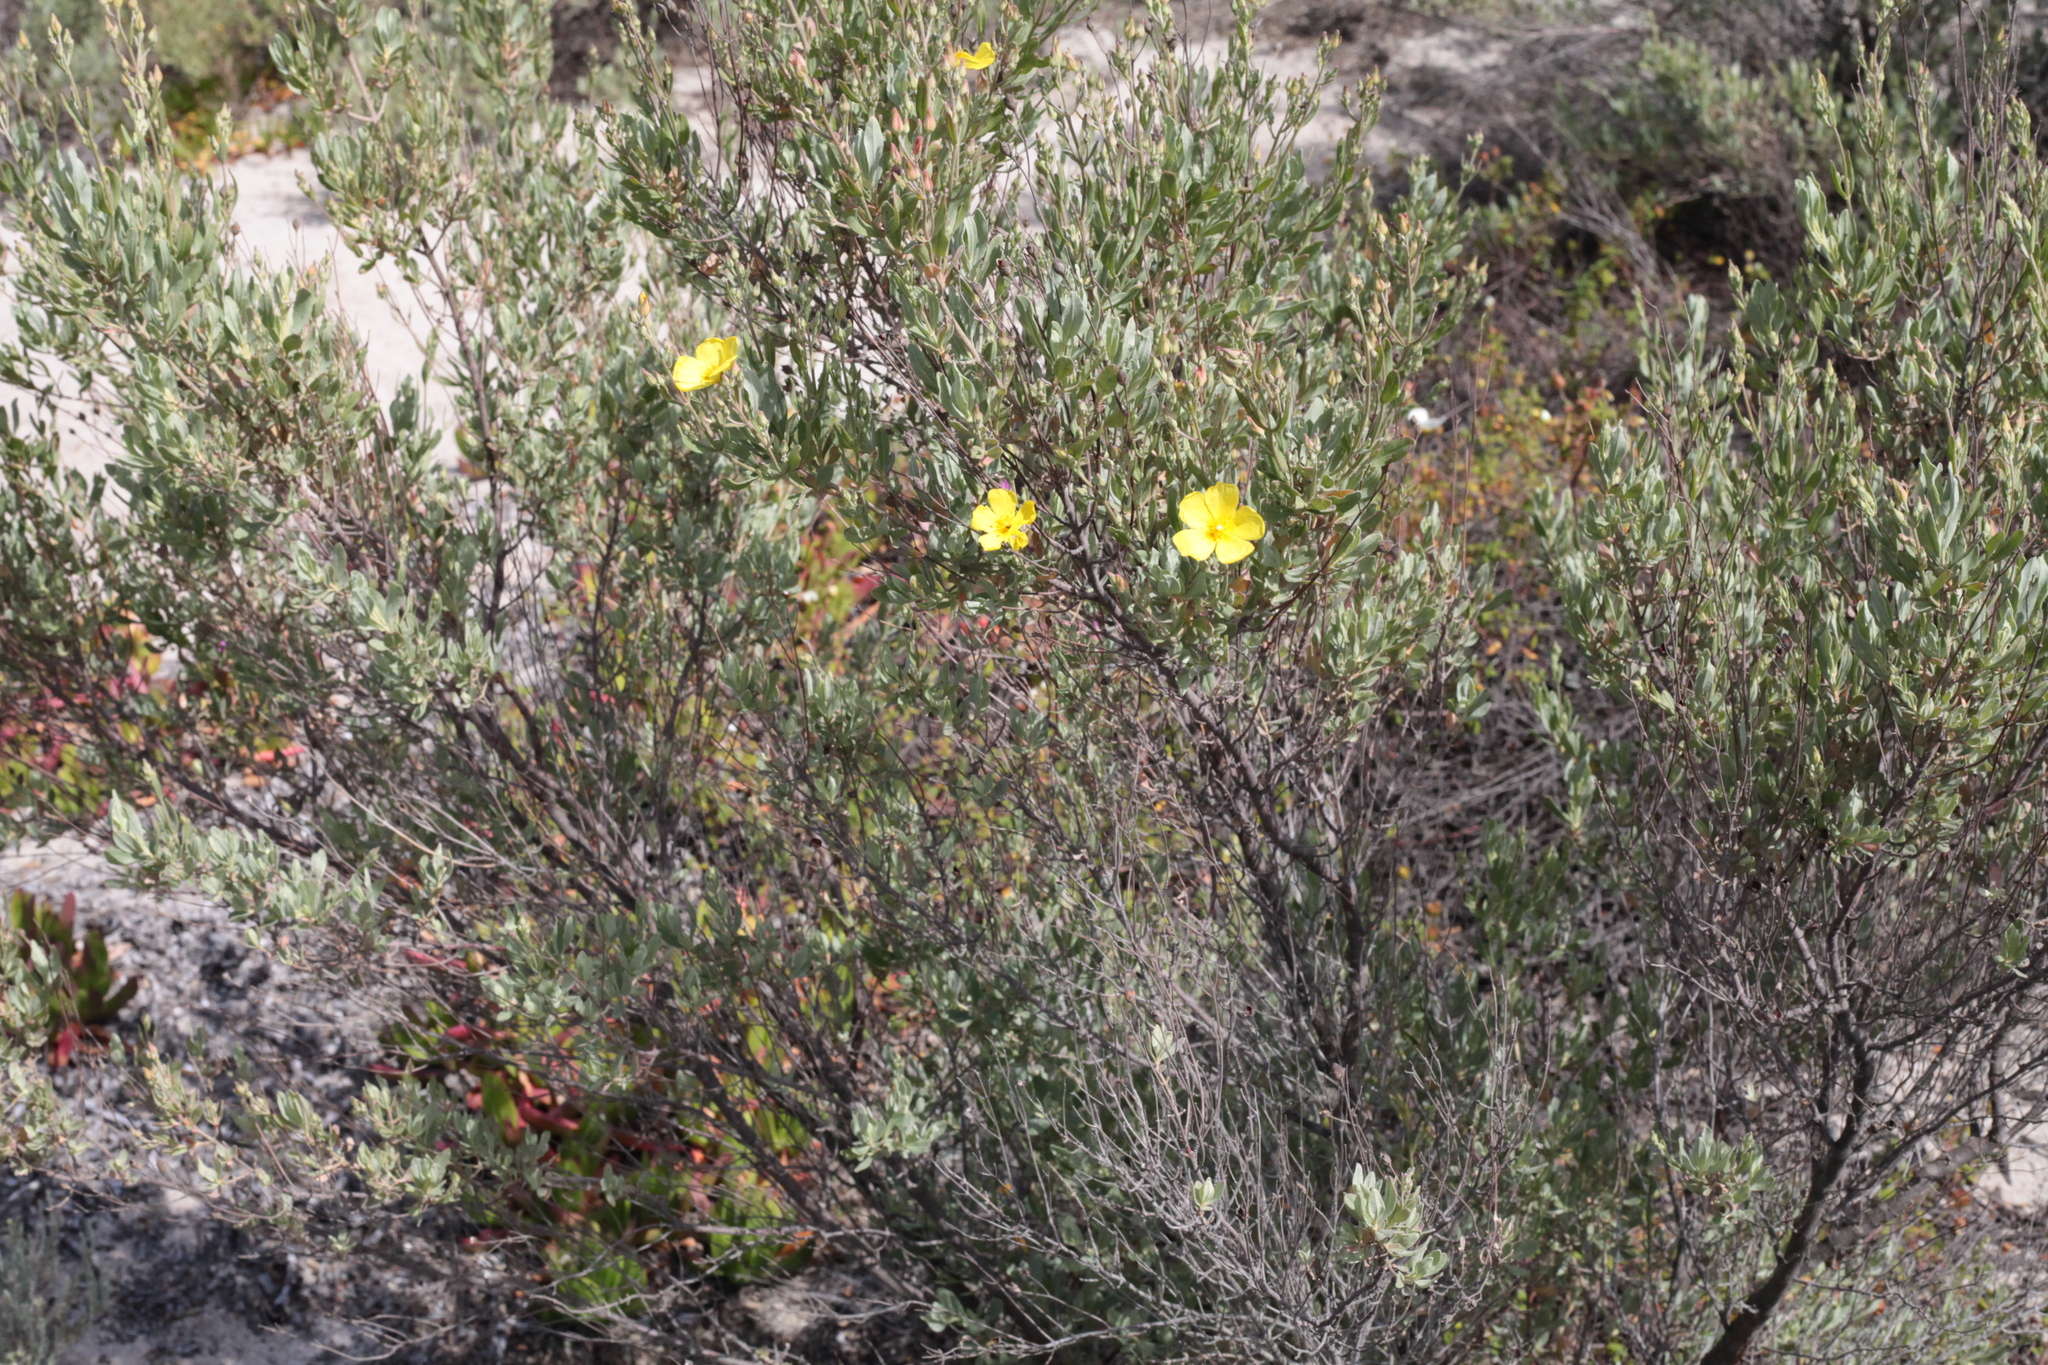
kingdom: Plantae
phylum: Tracheophyta
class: Magnoliopsida
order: Malvales
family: Cistaceae
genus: Halimium
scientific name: Halimium halimifolium
